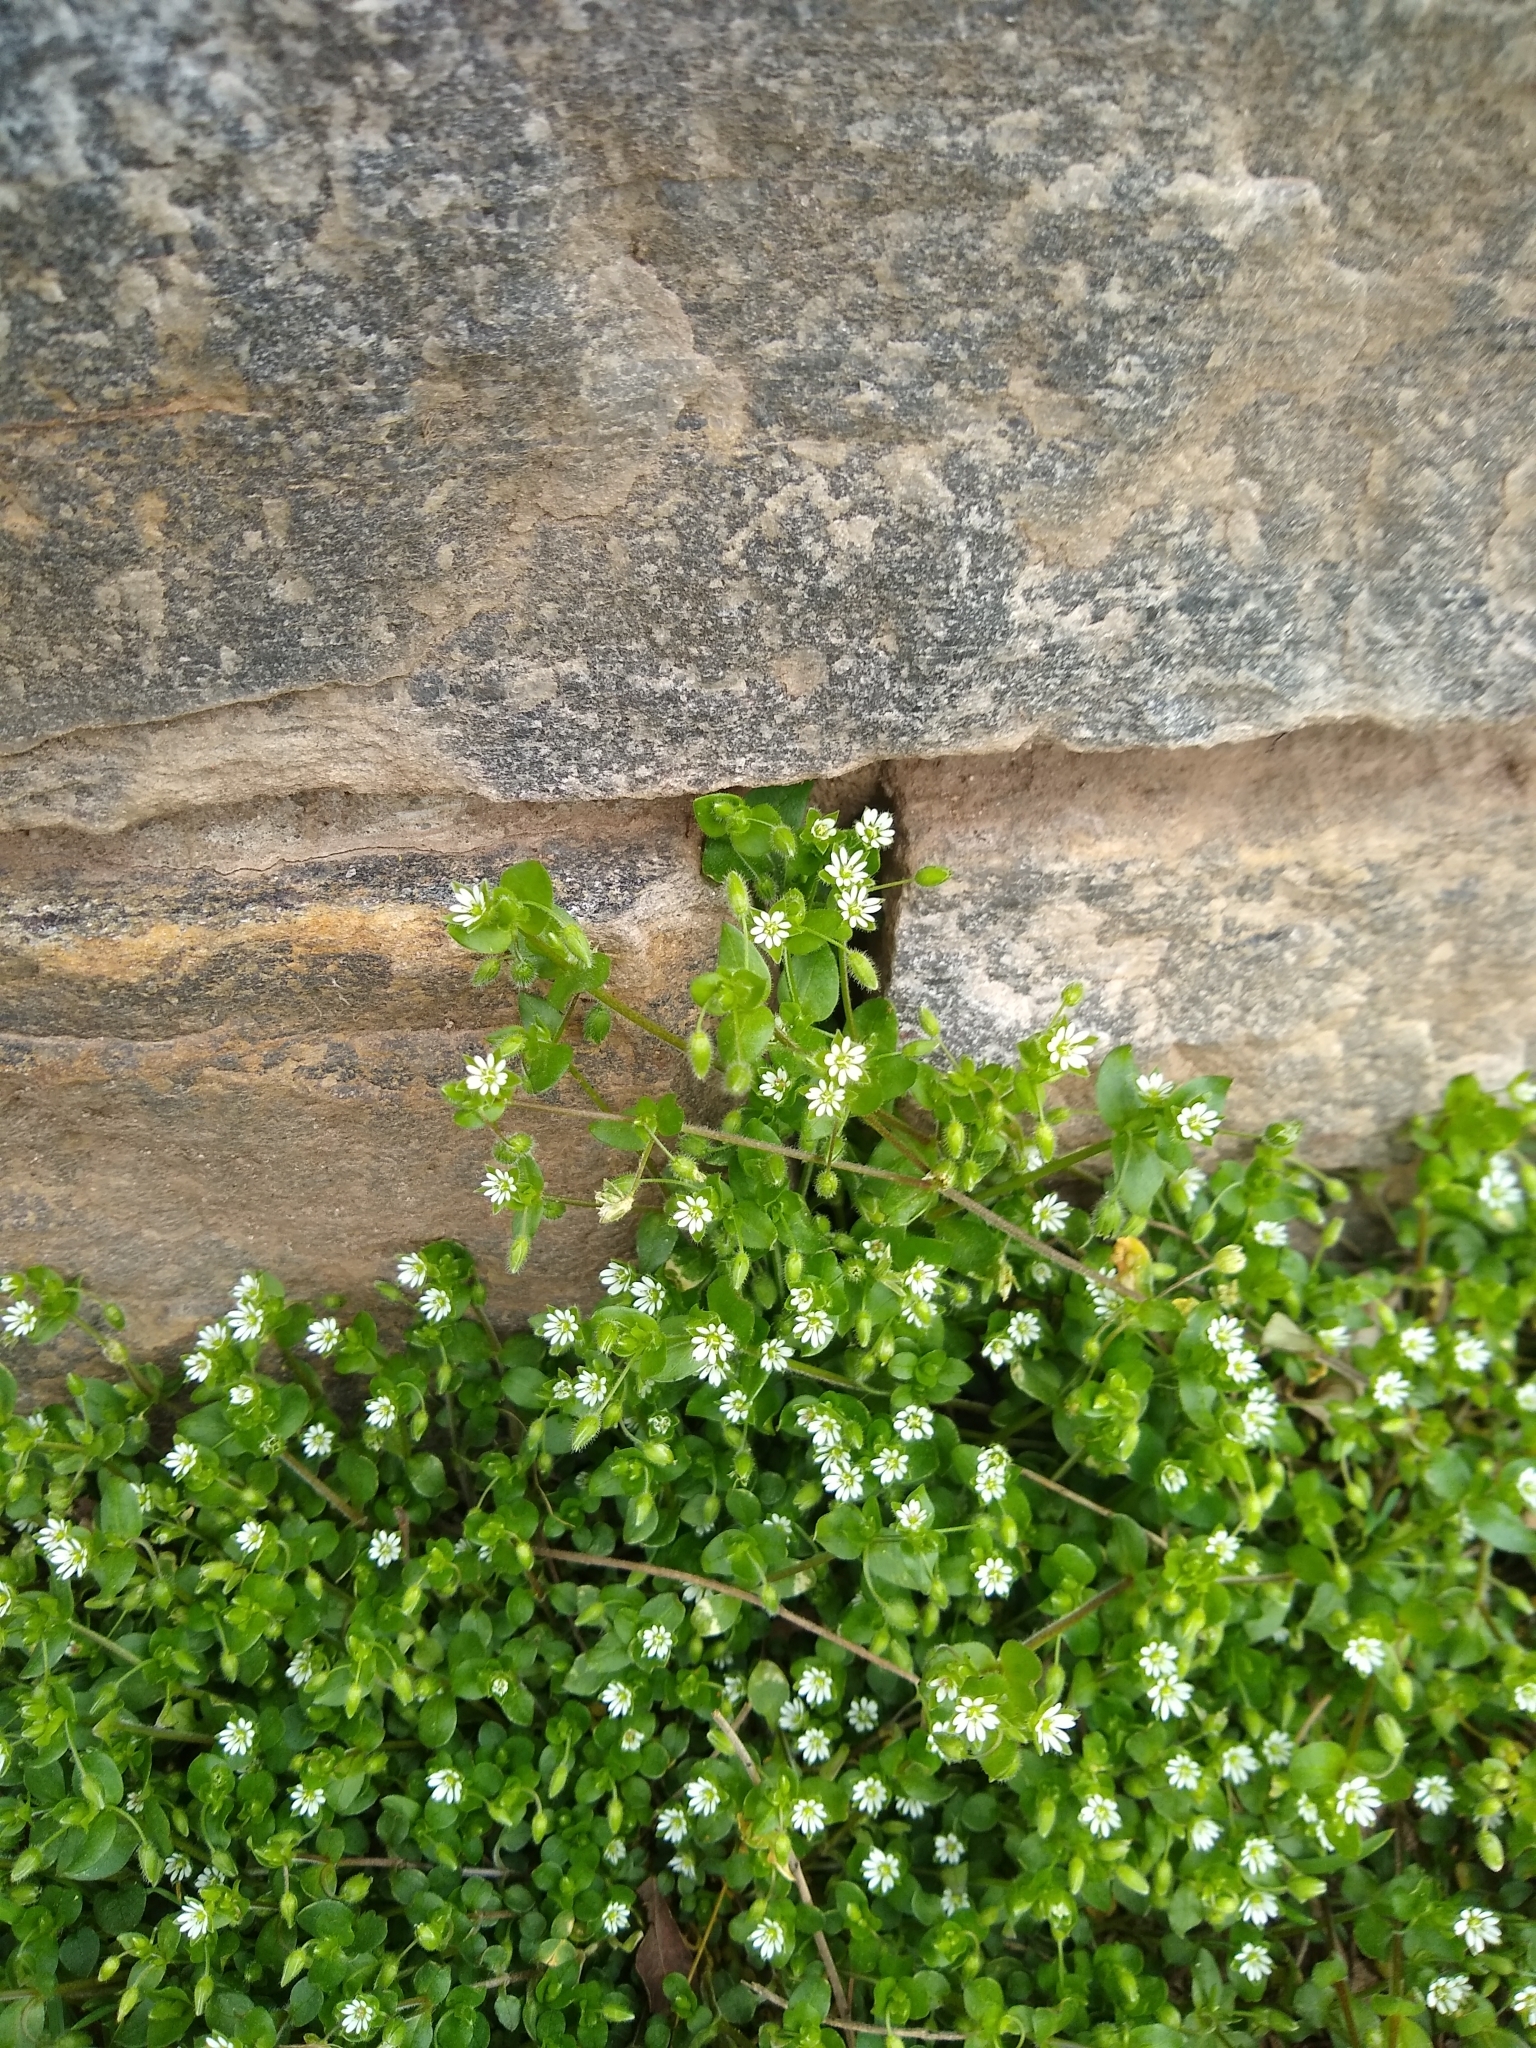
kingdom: Plantae
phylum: Tracheophyta
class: Magnoliopsida
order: Caryophyllales
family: Caryophyllaceae
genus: Stellaria
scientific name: Stellaria media
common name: Common chickweed
